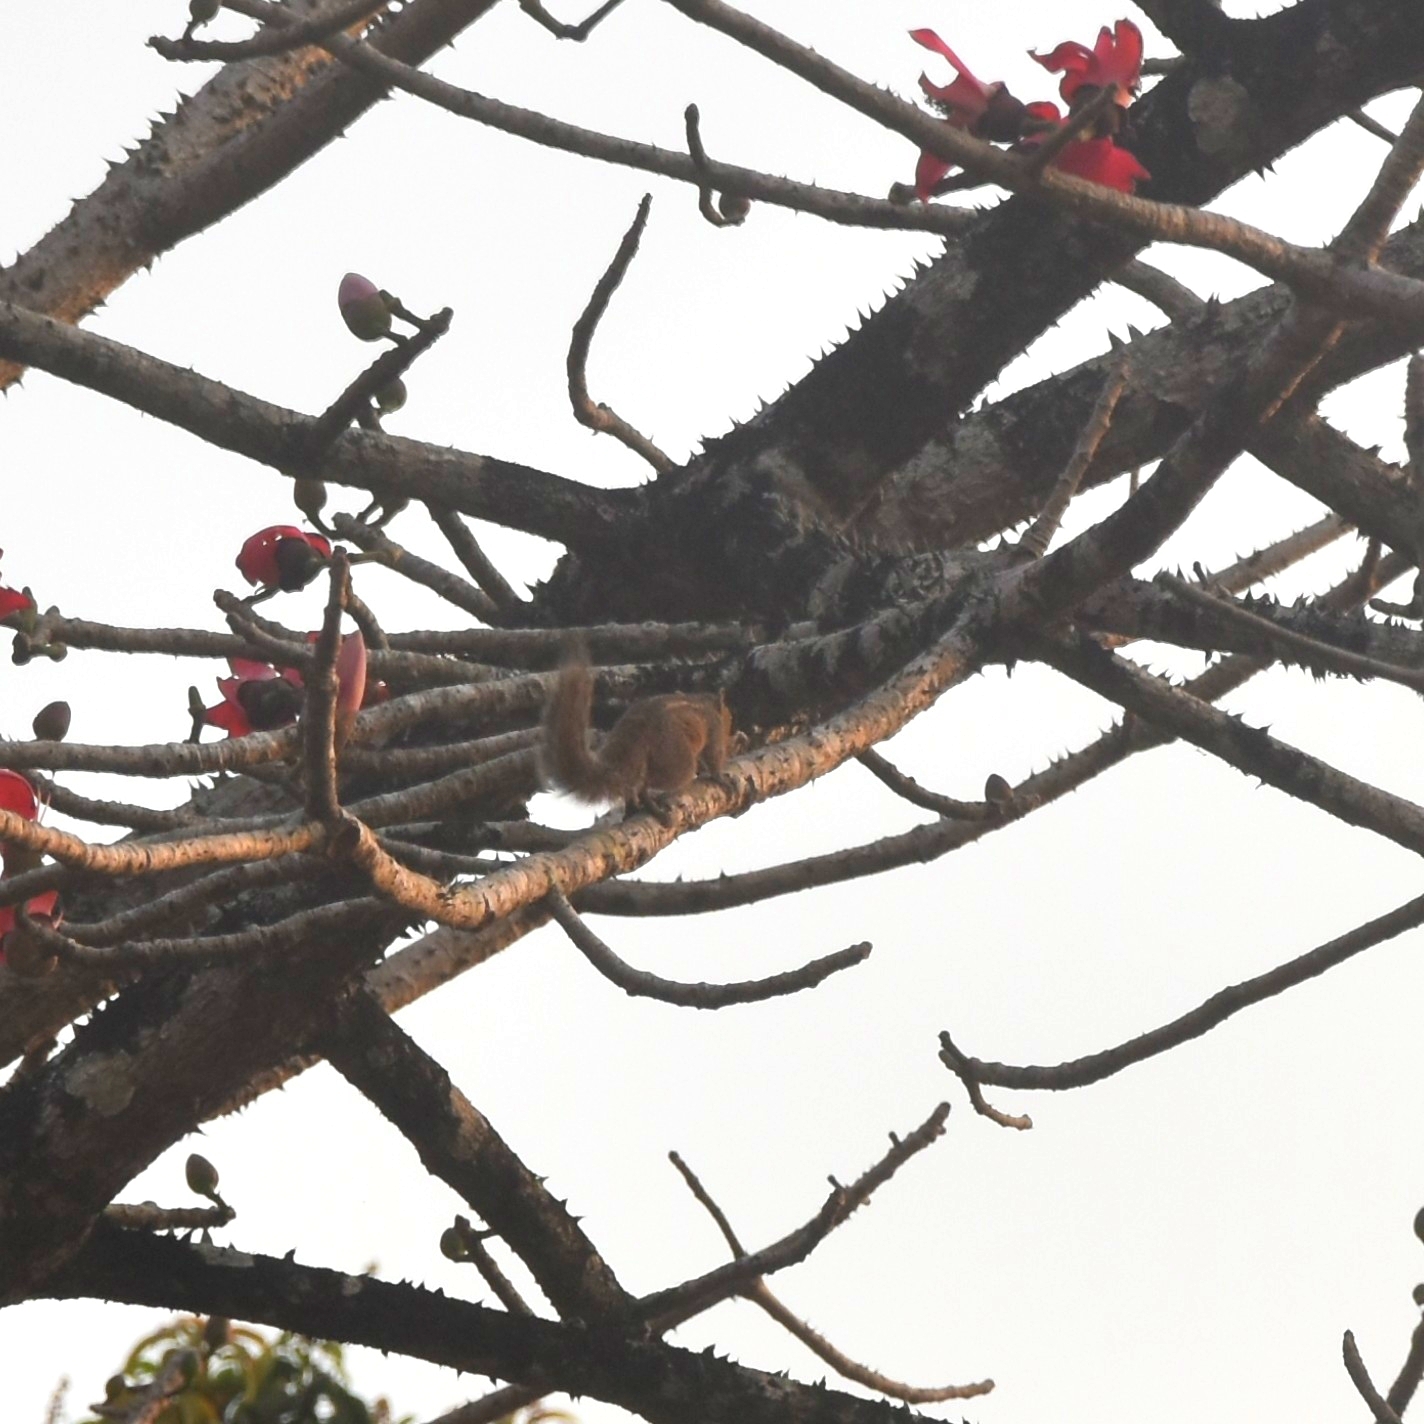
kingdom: Animalia
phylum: Chordata
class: Mammalia
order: Rodentia
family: Sciuridae
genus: Funambulus
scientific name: Funambulus tristriatus
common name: Jungle palm squirrel
